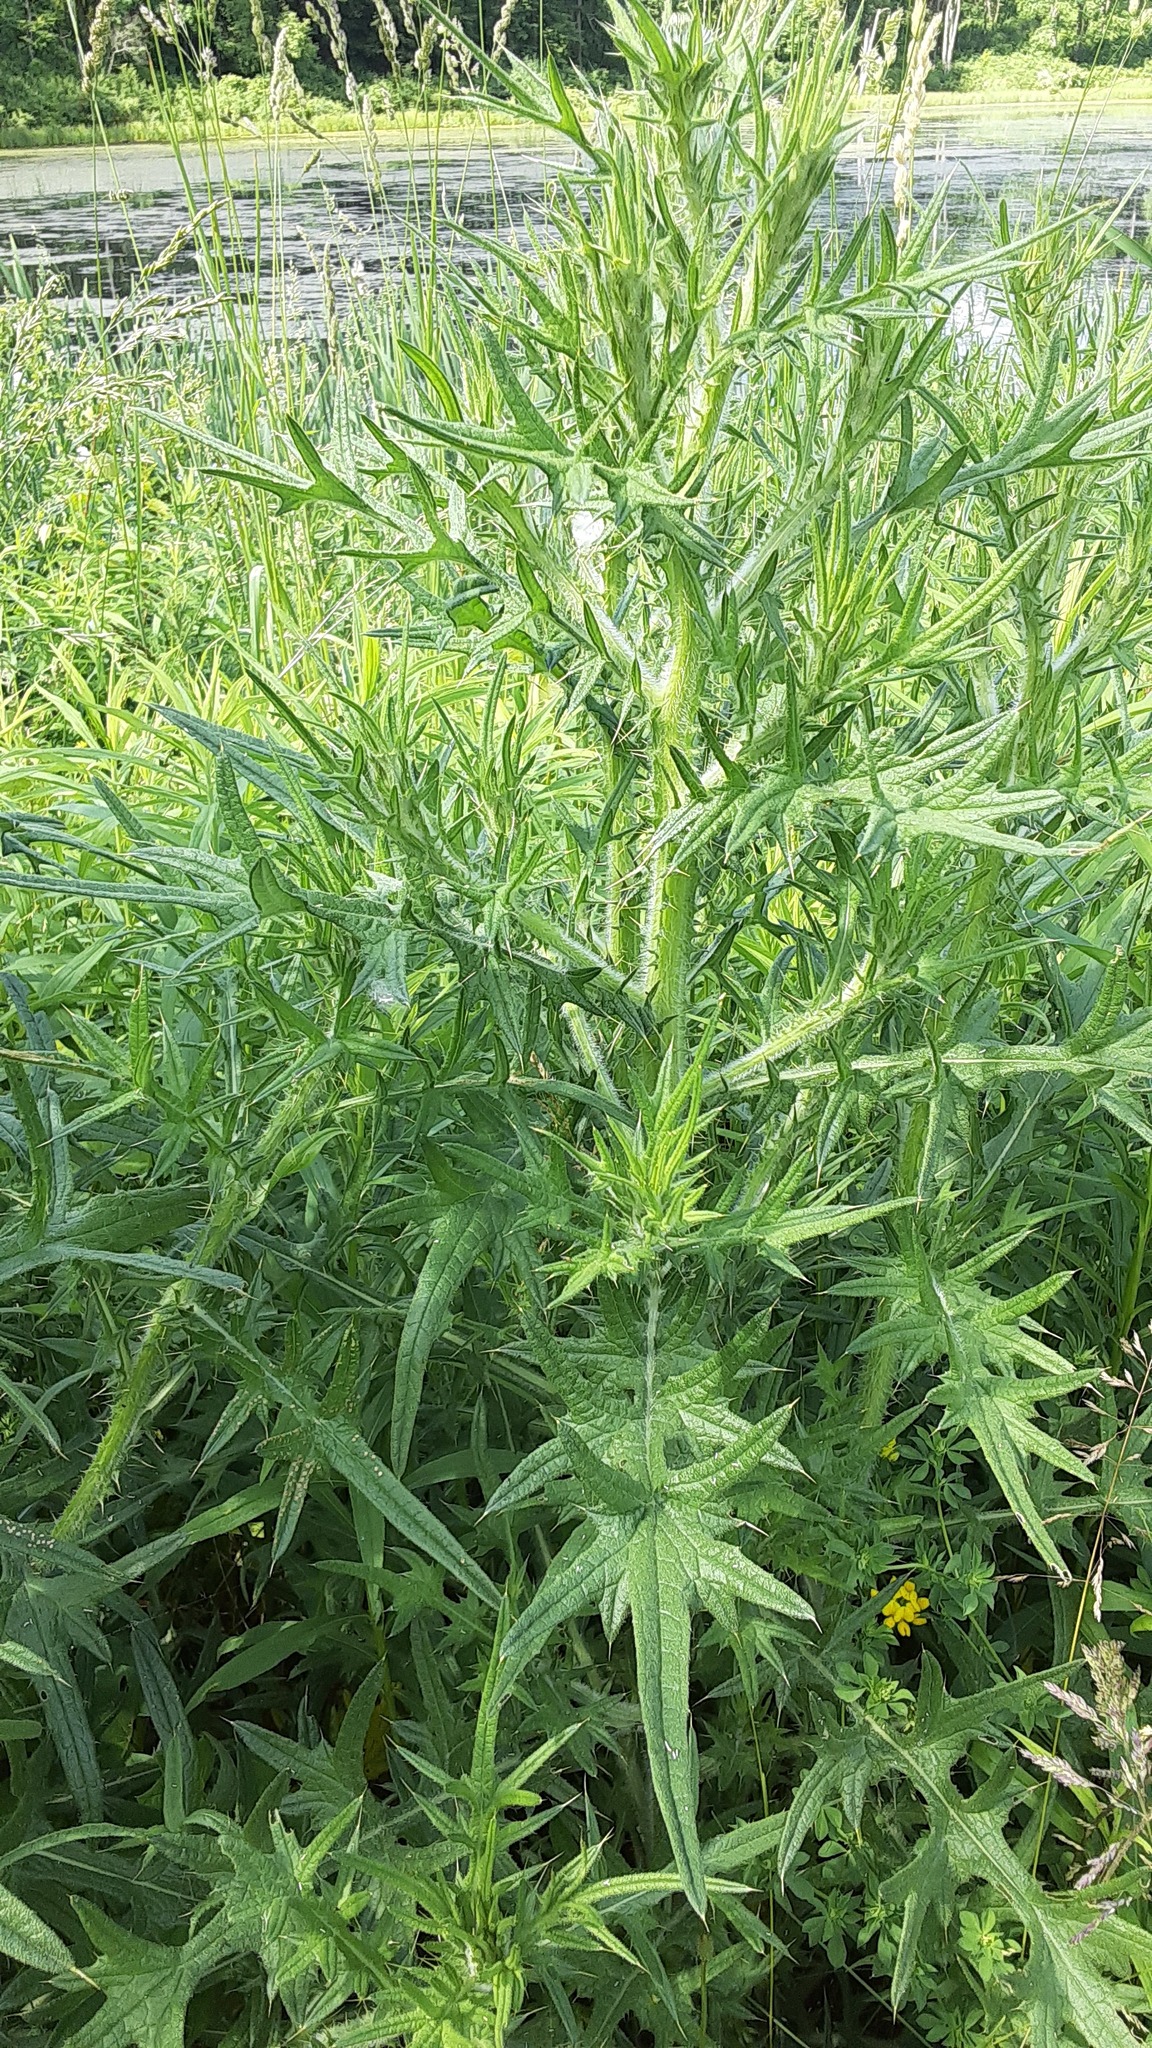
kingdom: Plantae
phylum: Tracheophyta
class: Magnoliopsida
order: Asterales
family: Asteraceae
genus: Cirsium
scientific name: Cirsium vulgare
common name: Bull thistle
